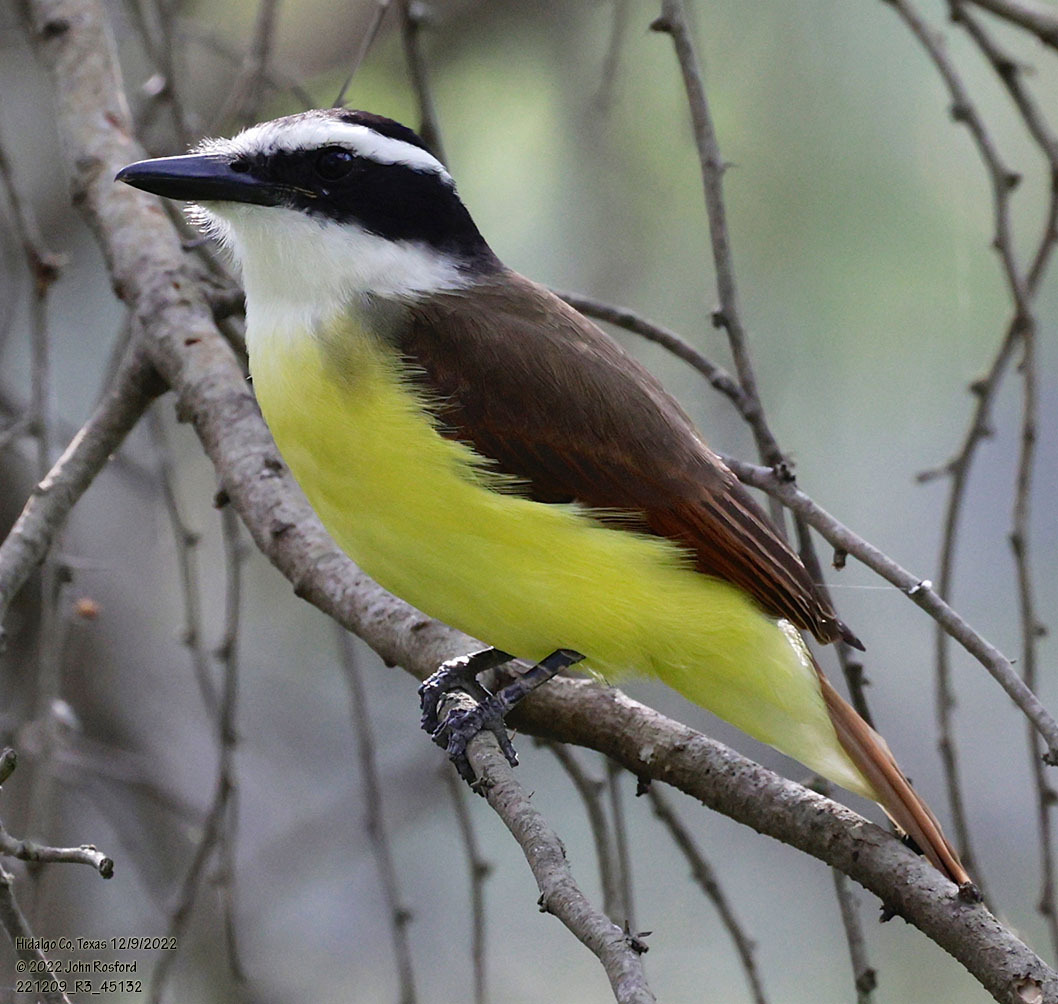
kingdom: Animalia
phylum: Chordata
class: Aves
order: Passeriformes
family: Tyrannidae
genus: Pitangus
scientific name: Pitangus sulphuratus
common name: Great kiskadee
